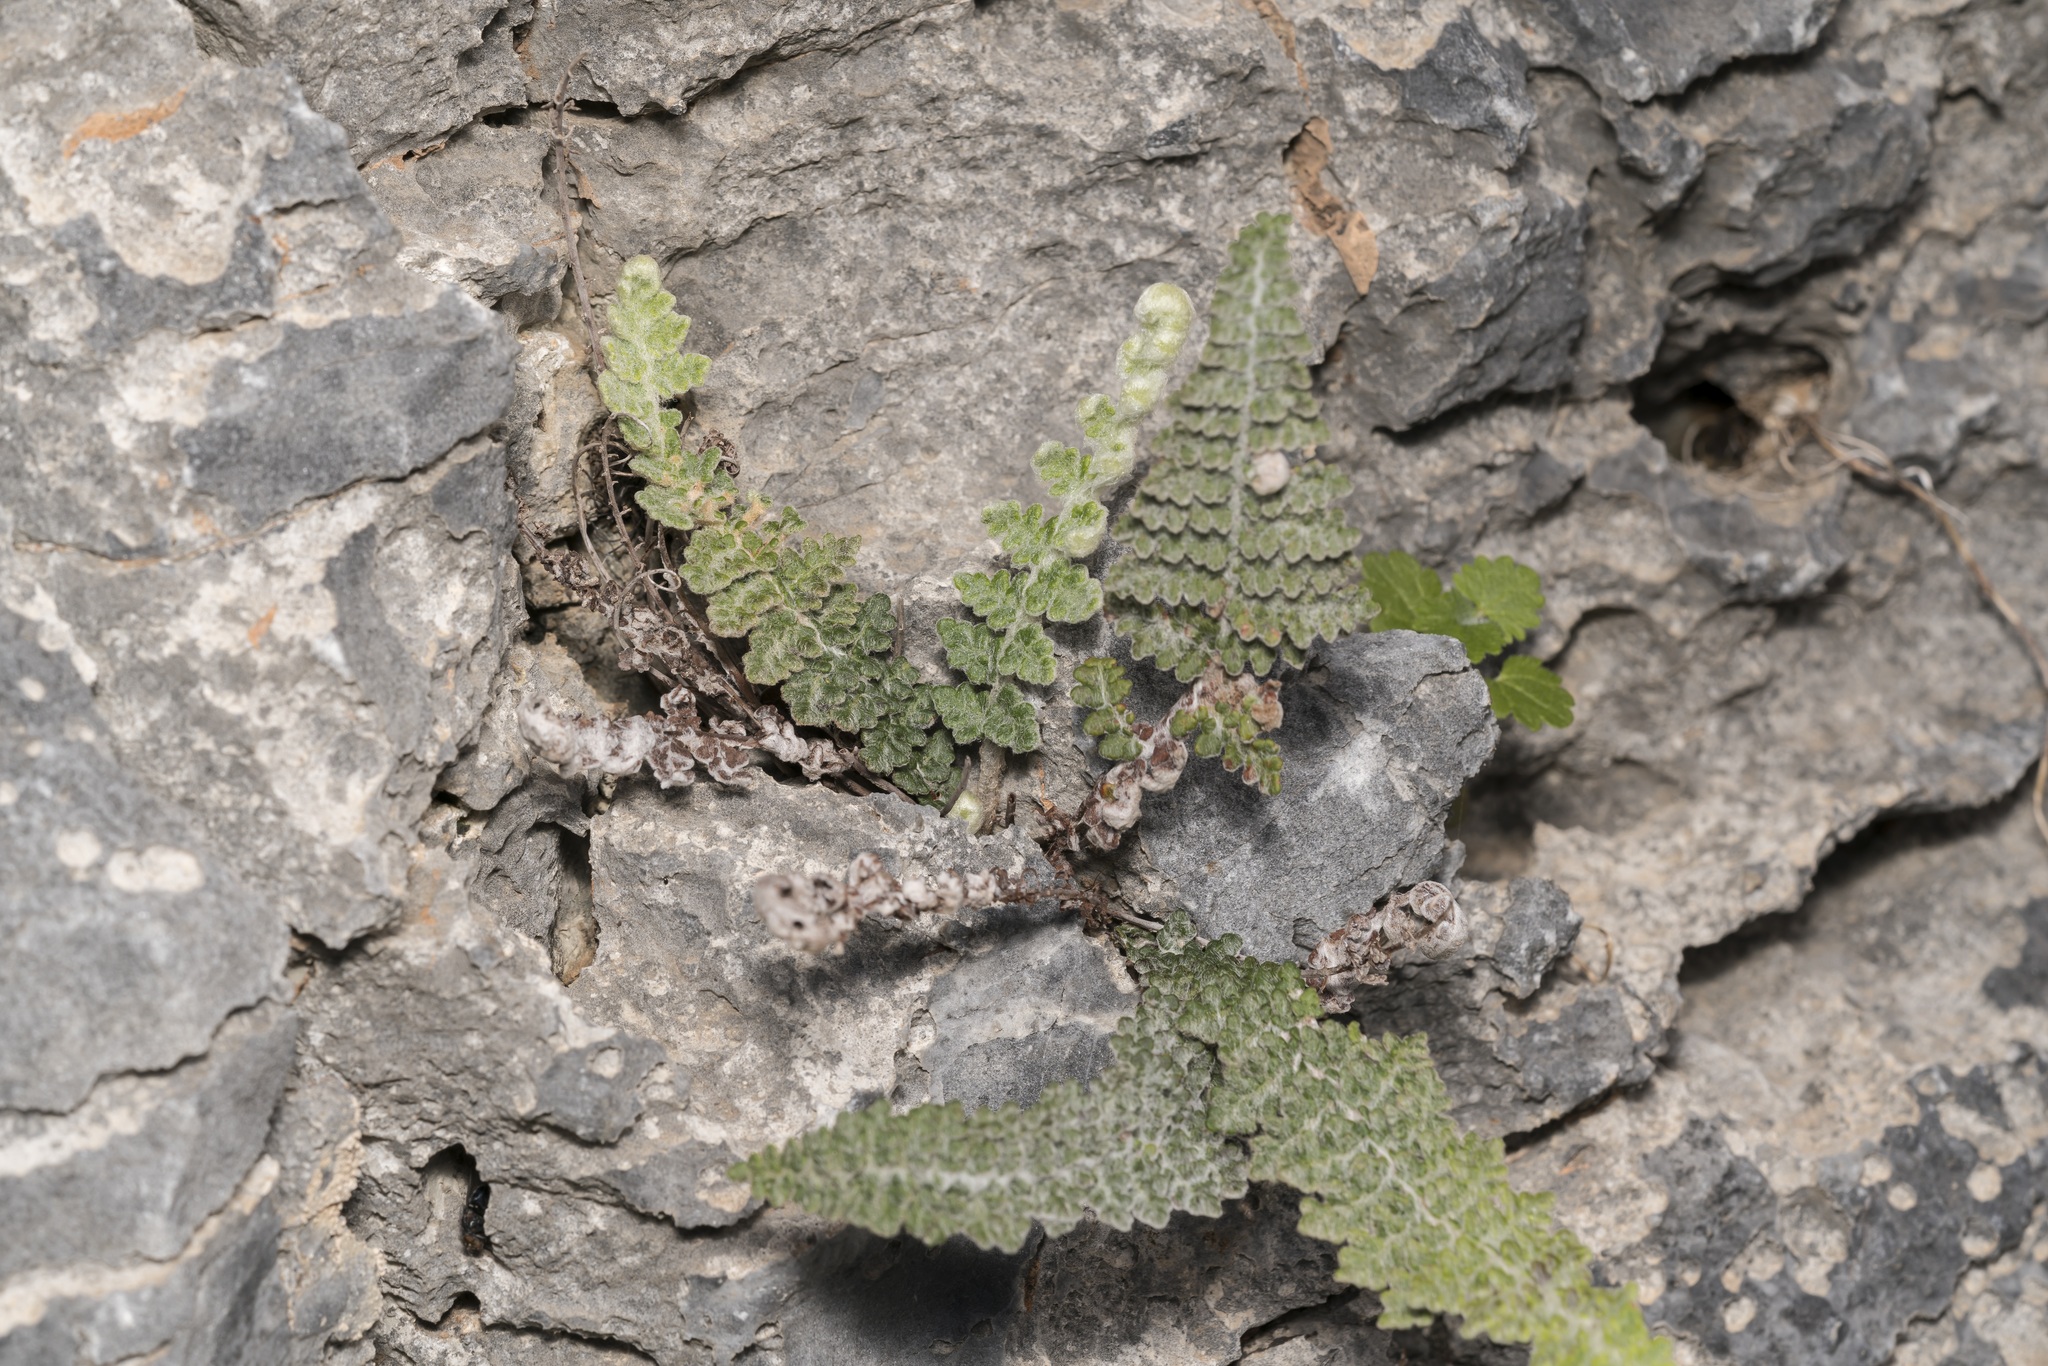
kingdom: Plantae
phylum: Tracheophyta
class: Polypodiopsida
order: Polypodiales
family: Pteridaceae
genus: Cosentinia
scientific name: Cosentinia vellea
